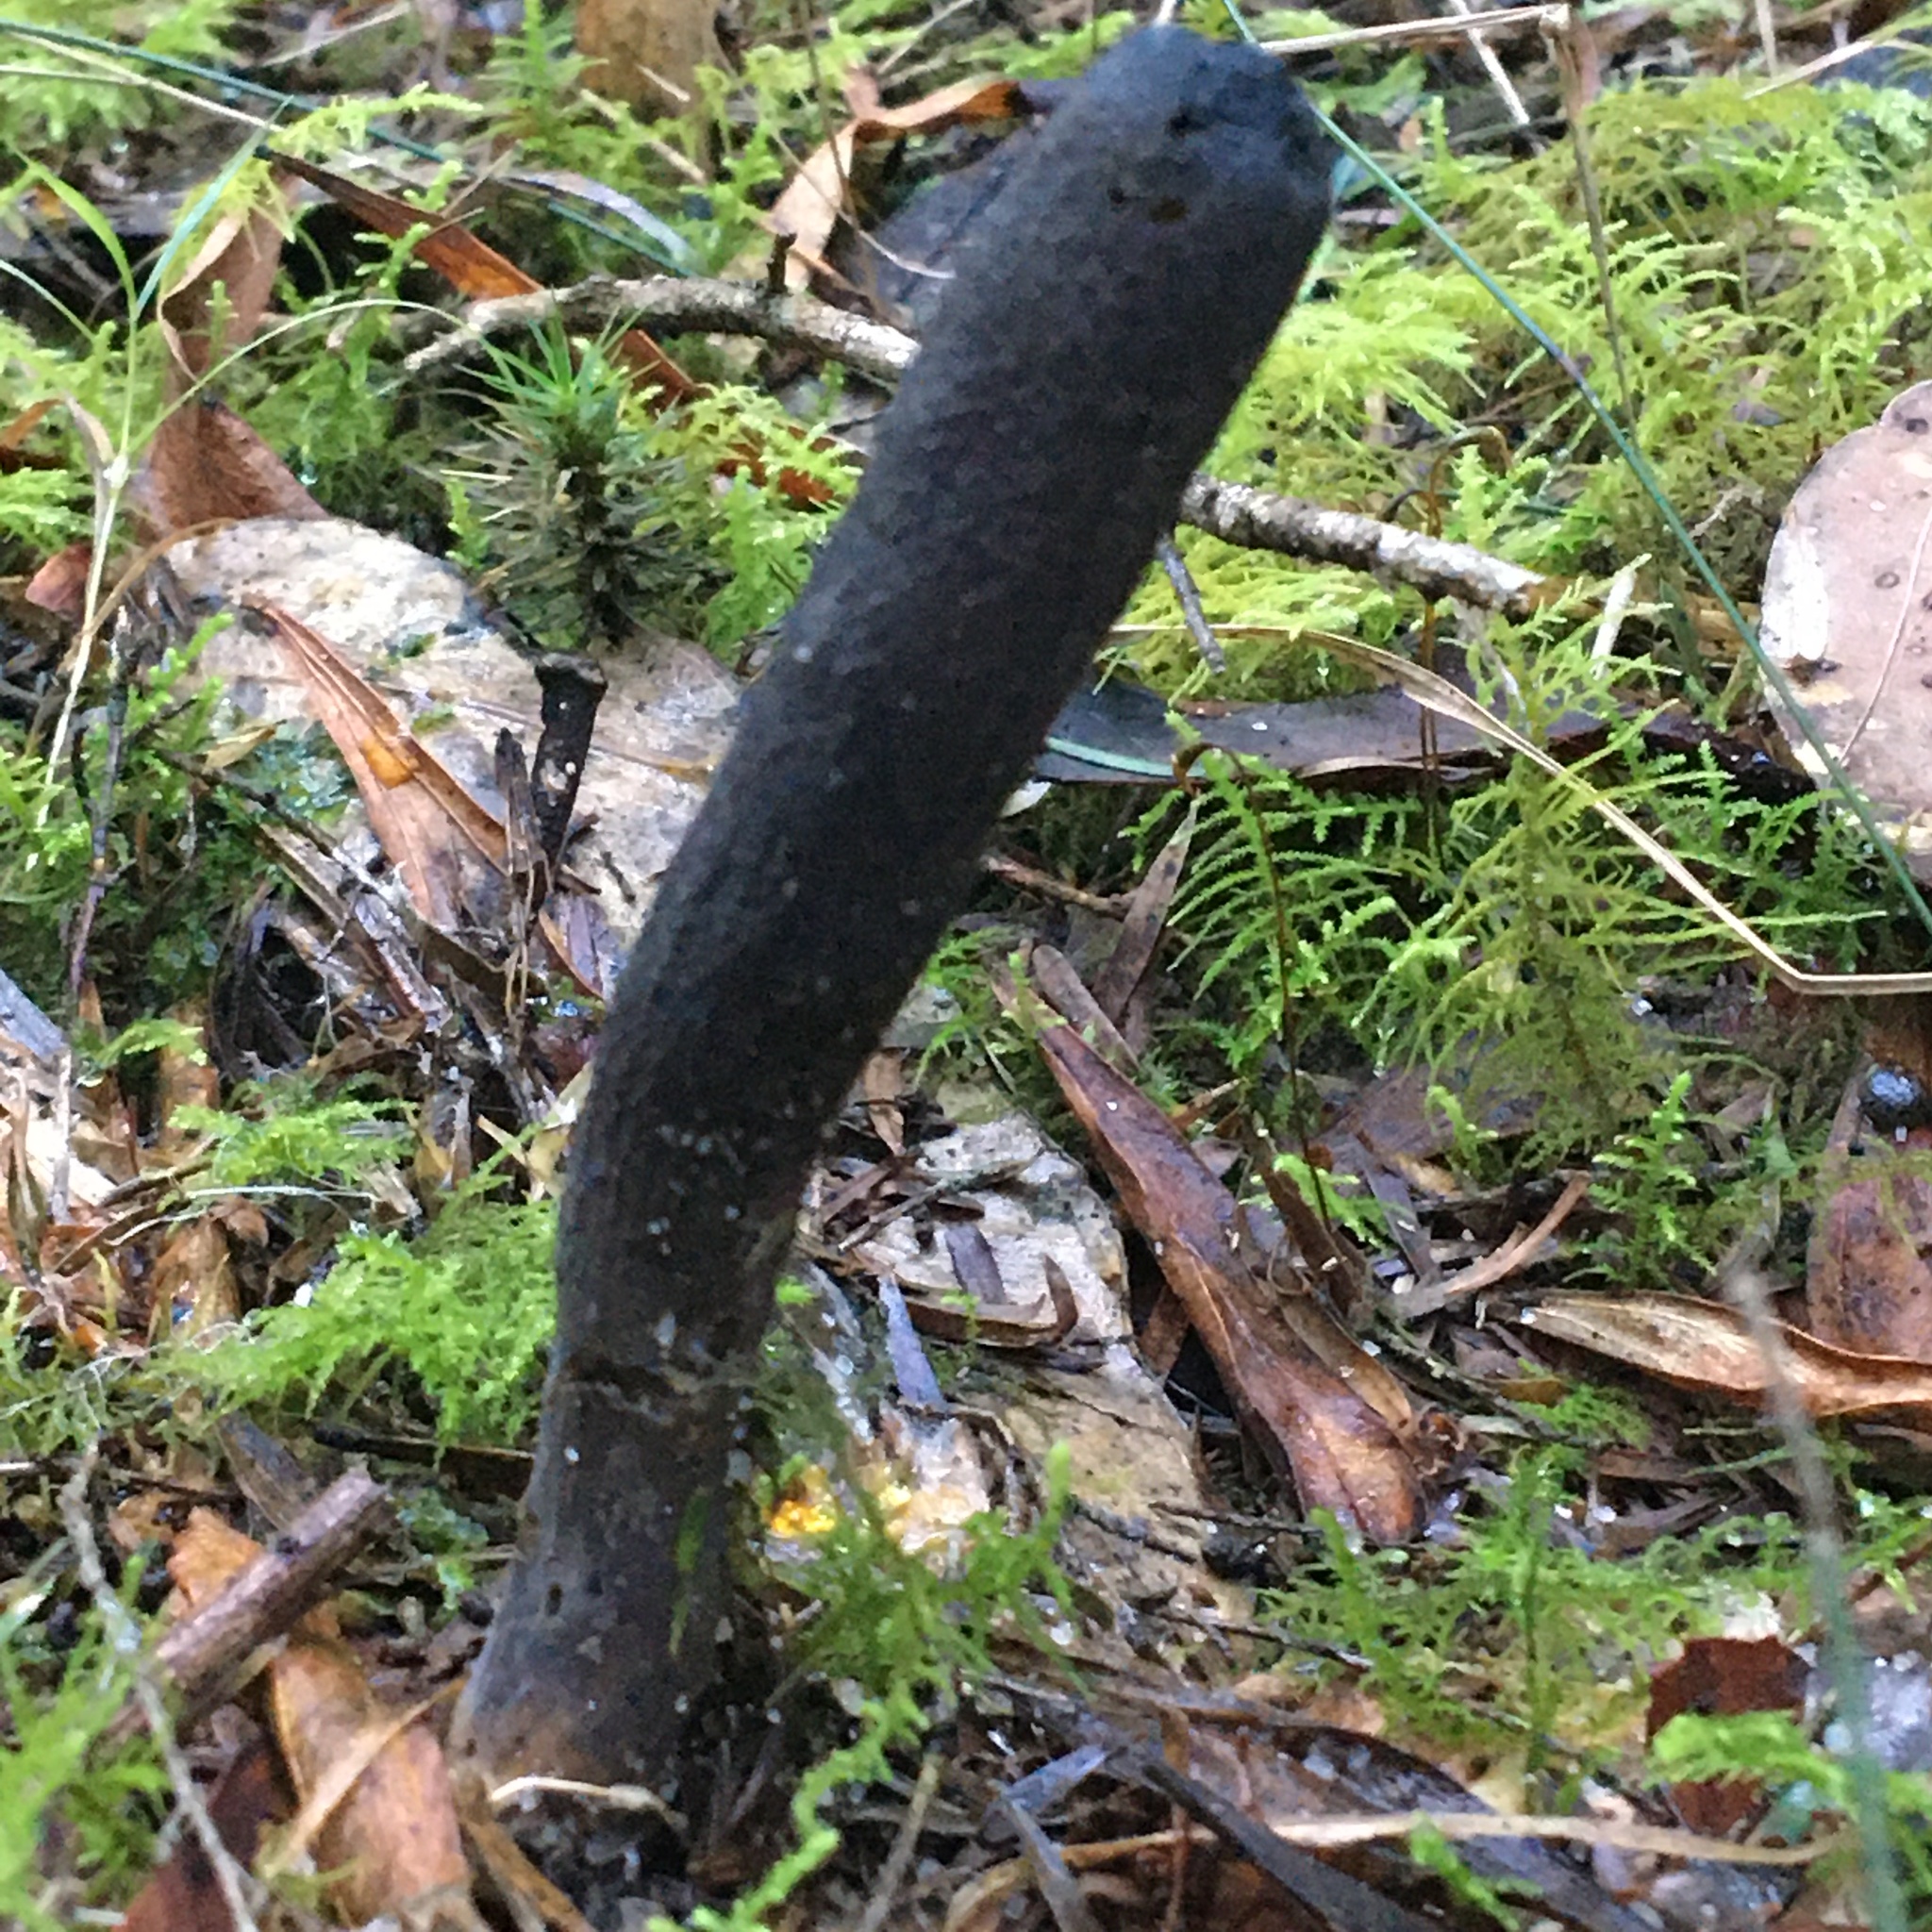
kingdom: Fungi
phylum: Ascomycota
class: Sordariomycetes
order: Hypocreales
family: Clavicipitaceae
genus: Drechmeria
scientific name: Drechmeria gunnii
